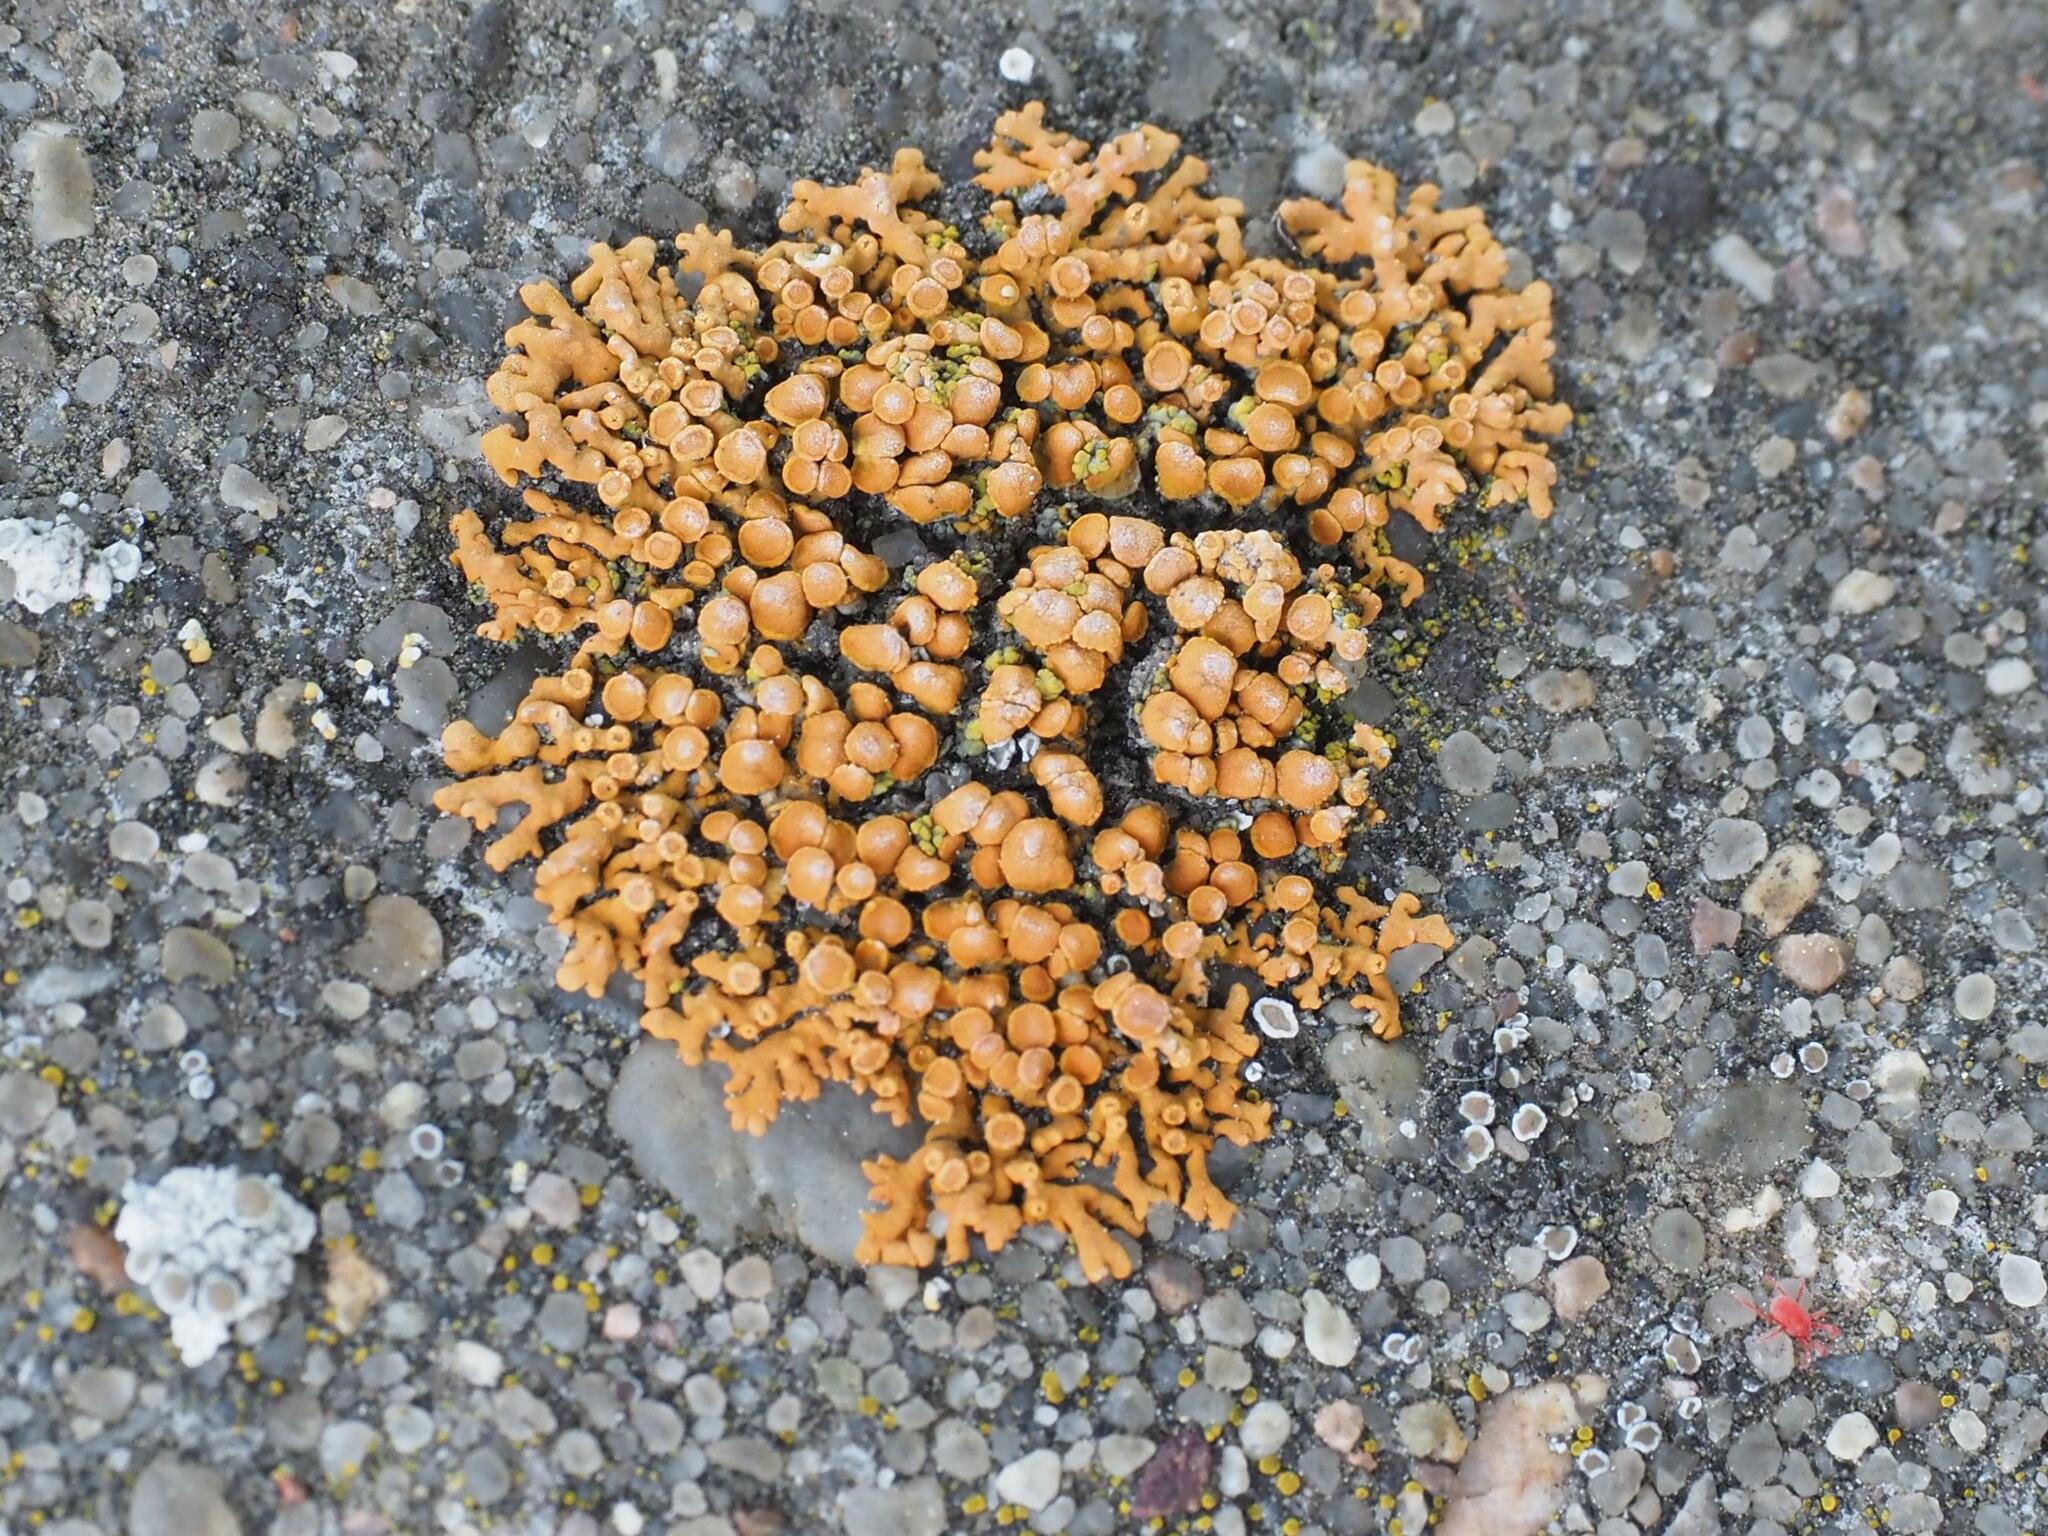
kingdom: Fungi
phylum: Ascomycota
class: Lecanoromycetes
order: Teloschistales
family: Teloschistaceae
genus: Xanthoria
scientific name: Xanthoria elegans
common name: Elegant sunburst lichen
